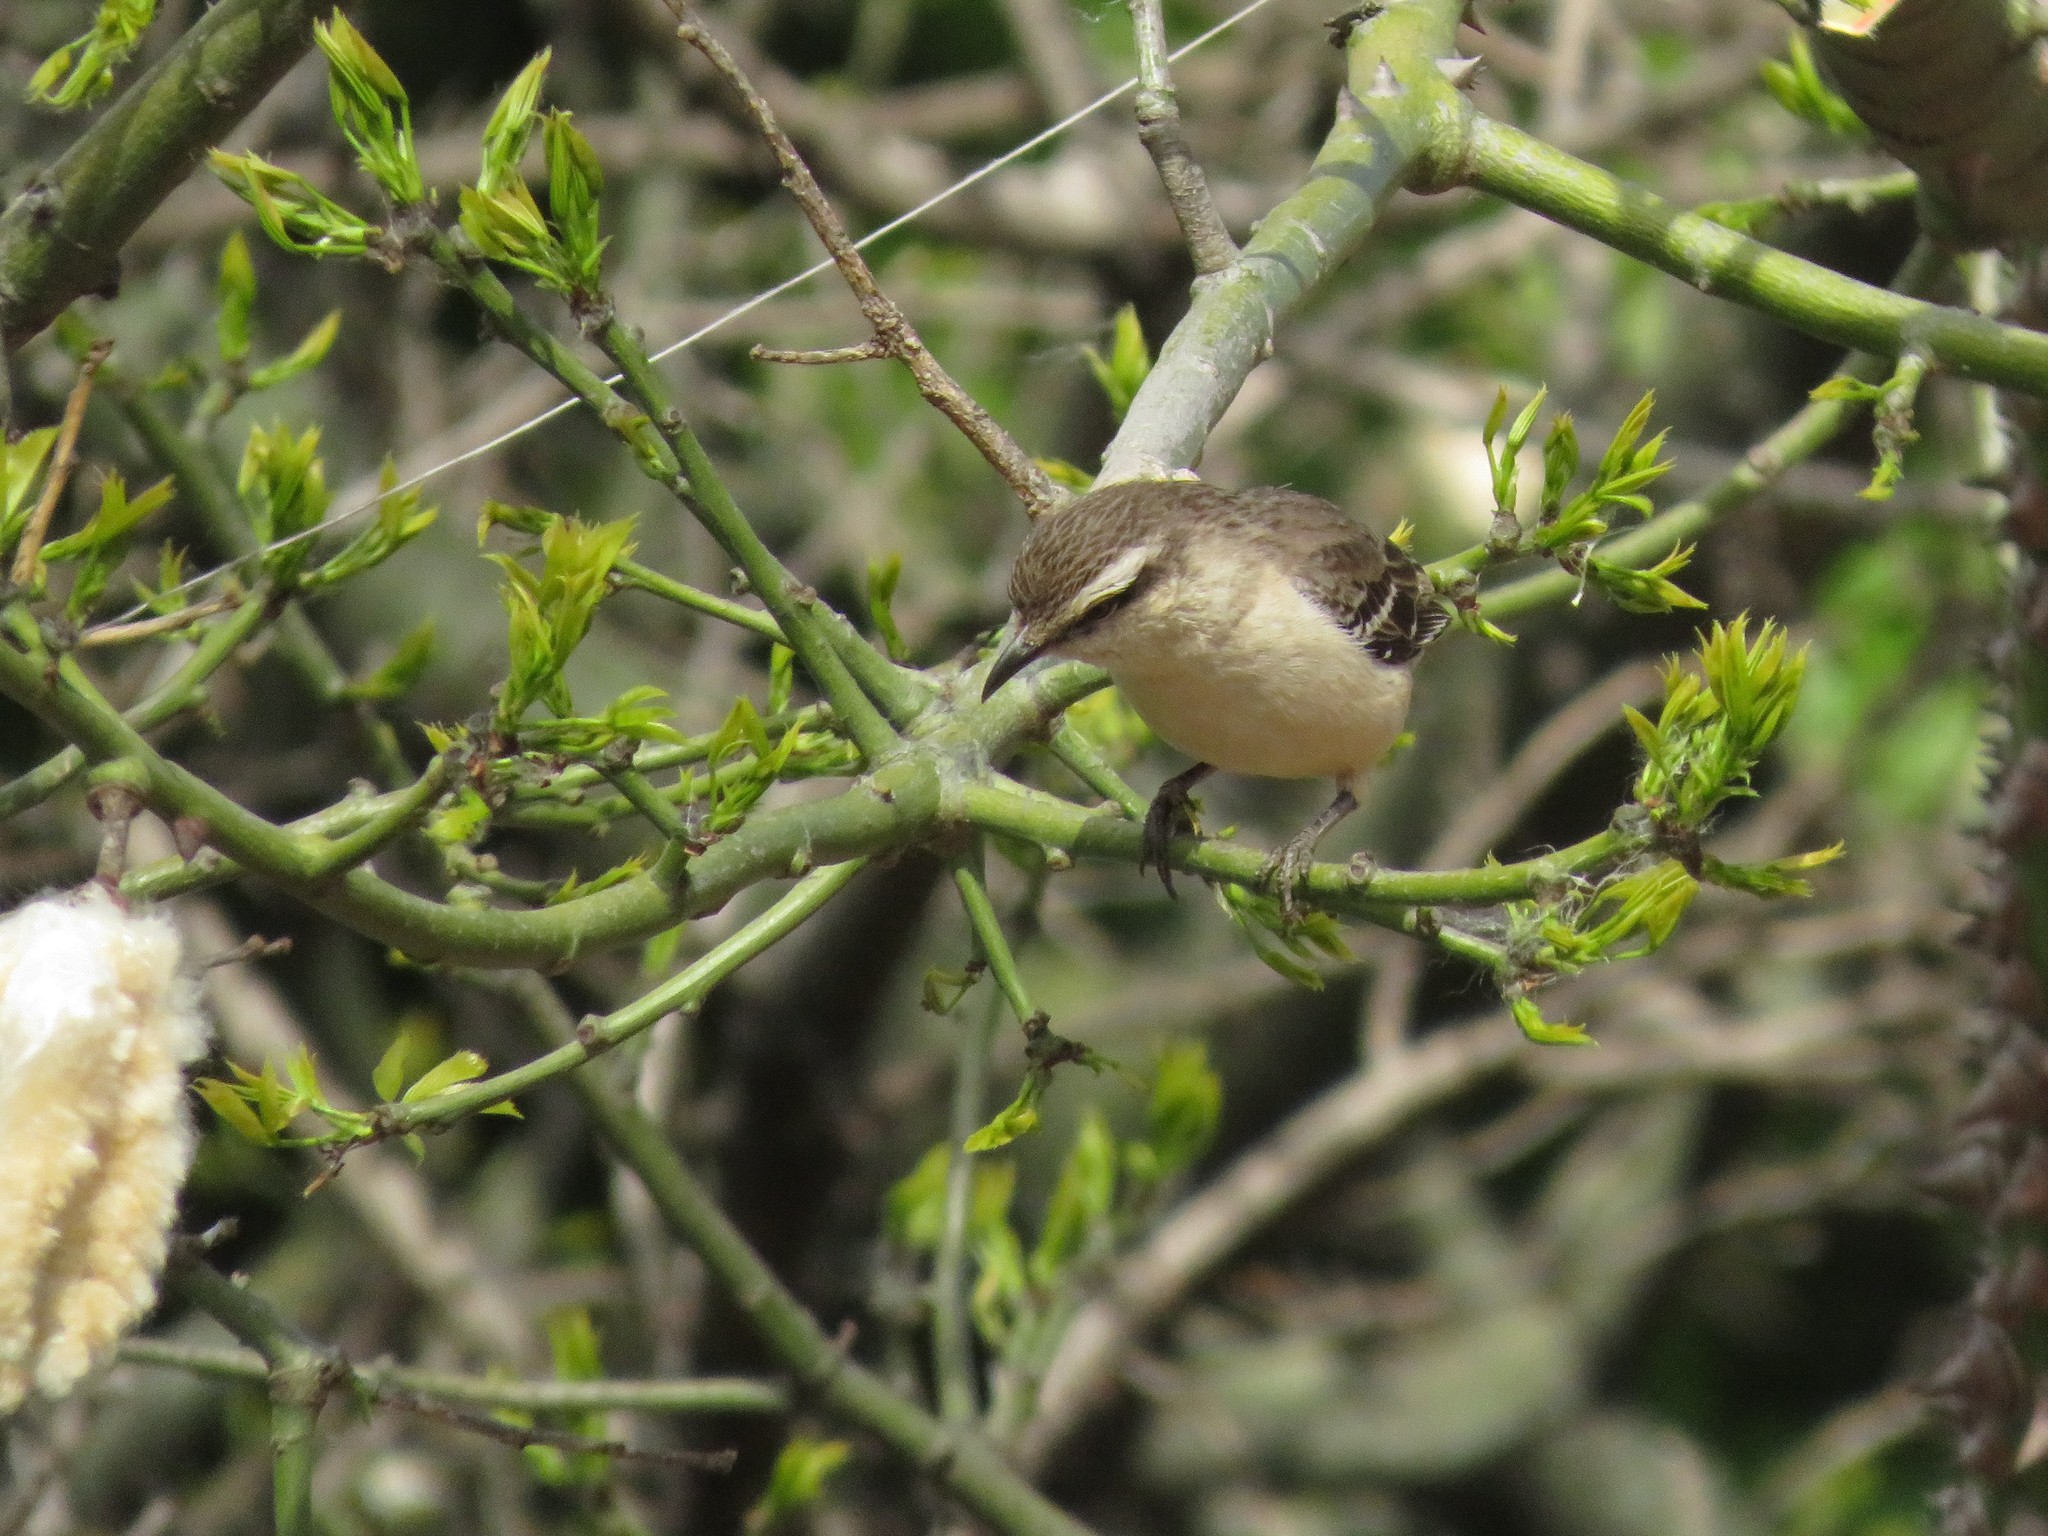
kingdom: Animalia
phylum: Chordata
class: Aves
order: Passeriformes
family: Mimidae
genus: Mimus
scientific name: Mimus saturninus
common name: Chalk-browed mockingbird
